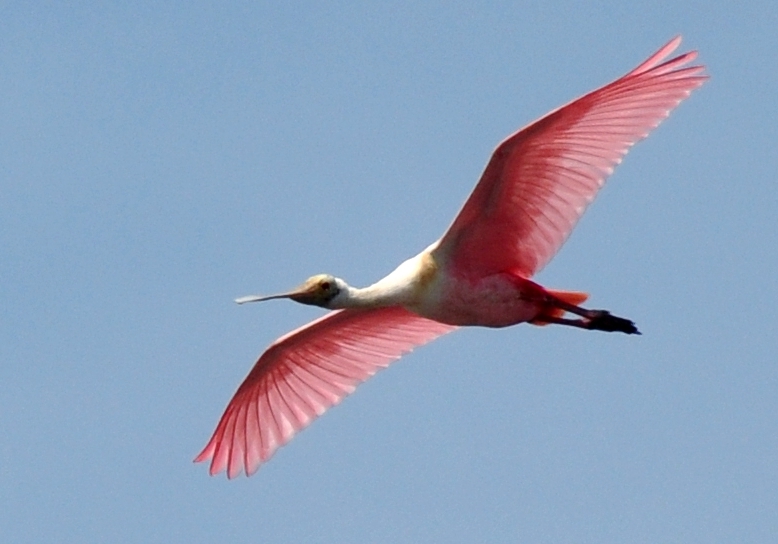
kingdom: Animalia
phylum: Chordata
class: Aves
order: Pelecaniformes
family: Threskiornithidae
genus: Platalea
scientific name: Platalea ajaja
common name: Roseate spoonbill
